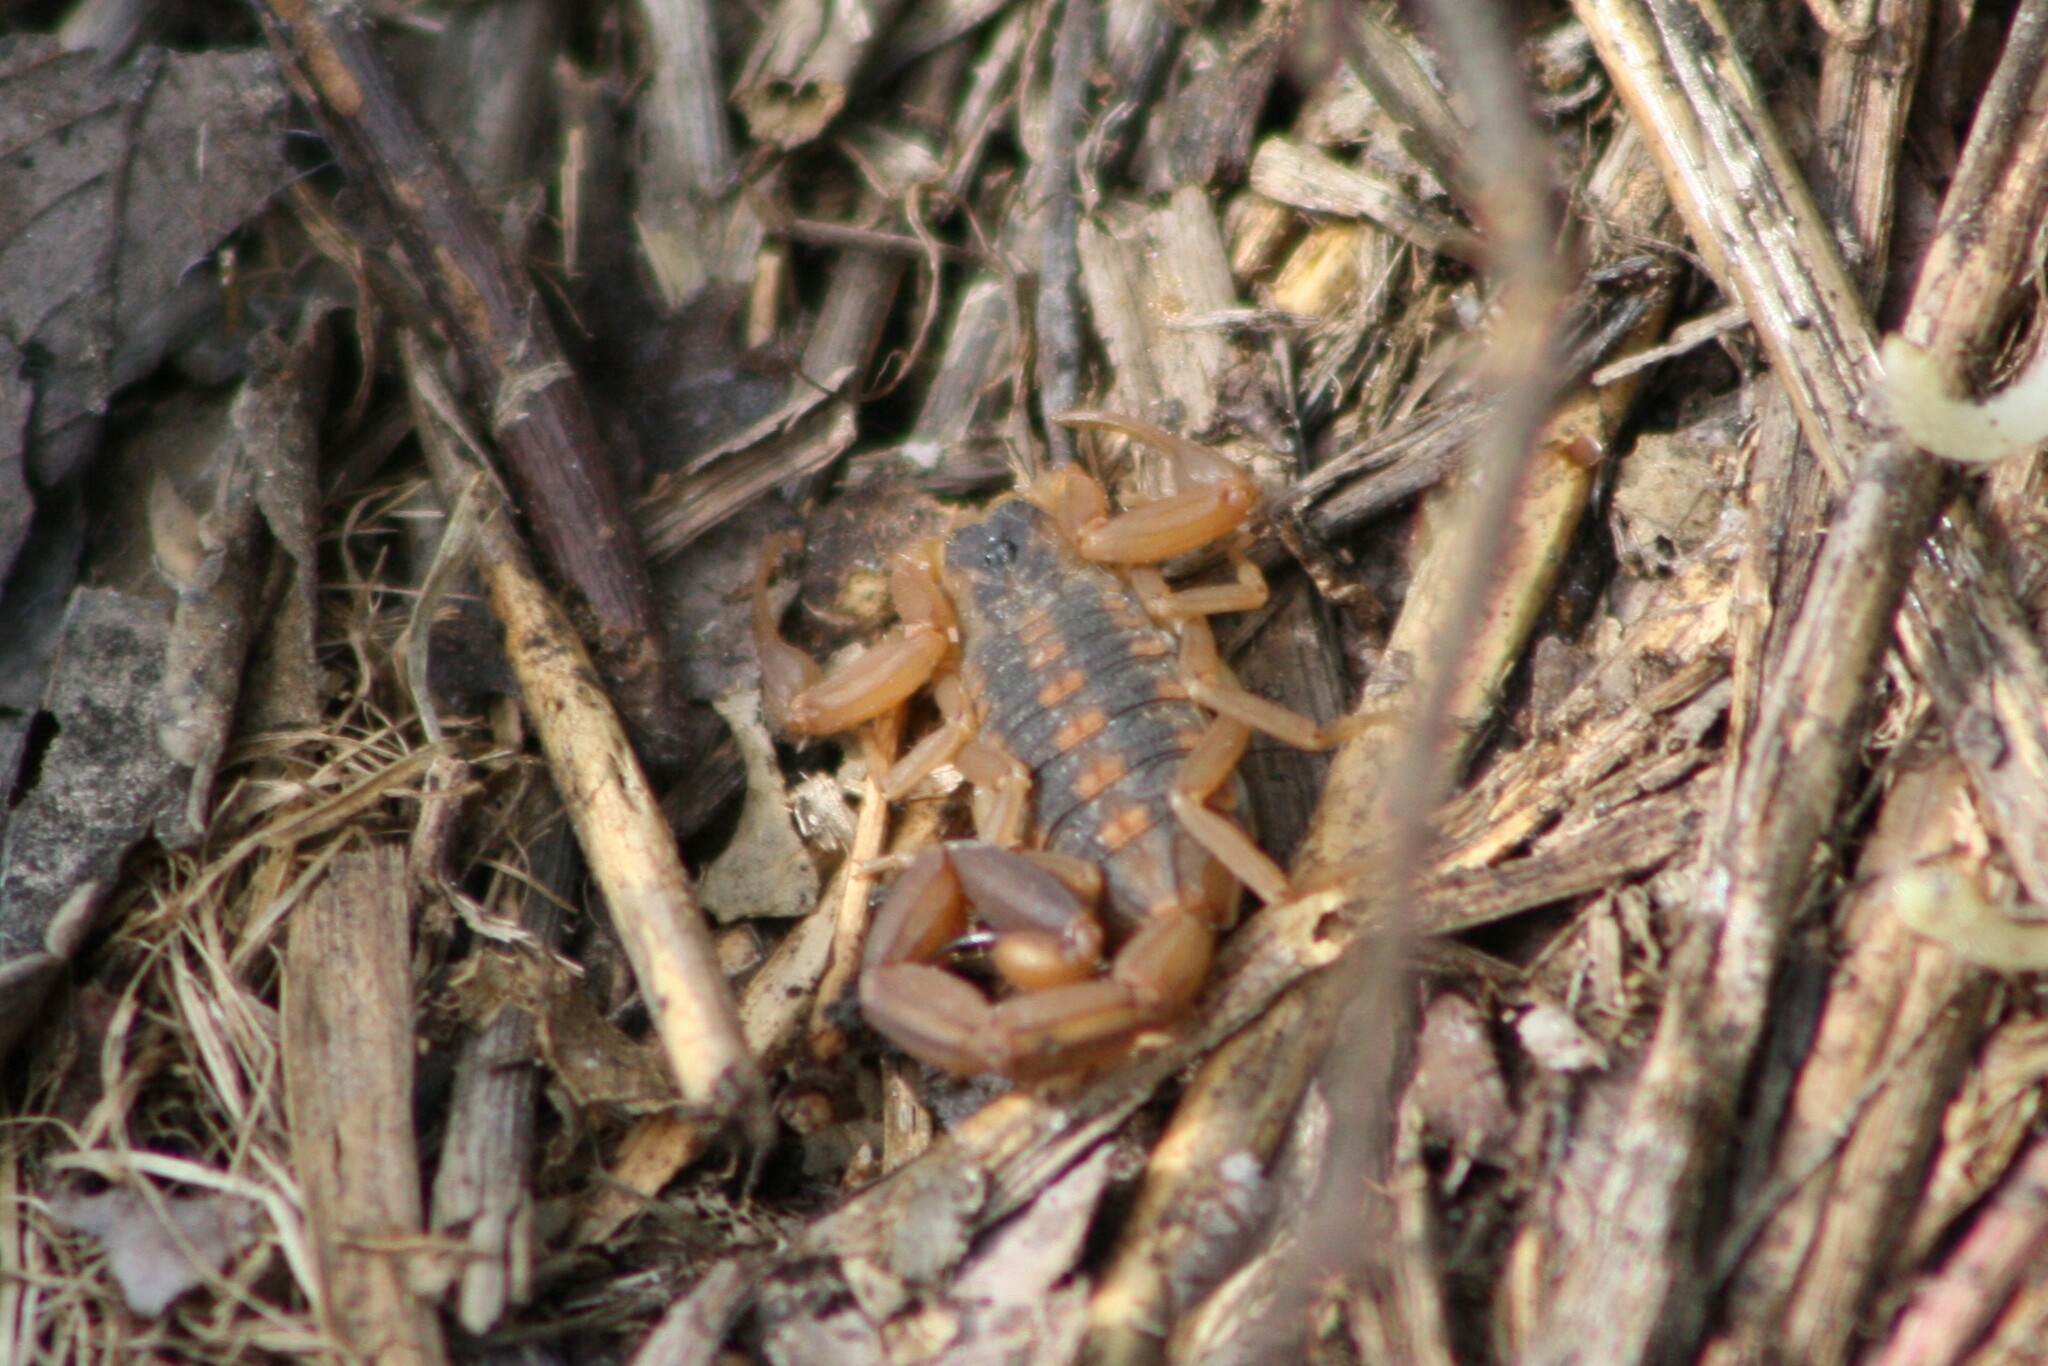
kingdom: Animalia
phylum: Arthropoda
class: Arachnida
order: Scorpiones
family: Buthidae
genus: Centruroides
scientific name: Centruroides vittatus
